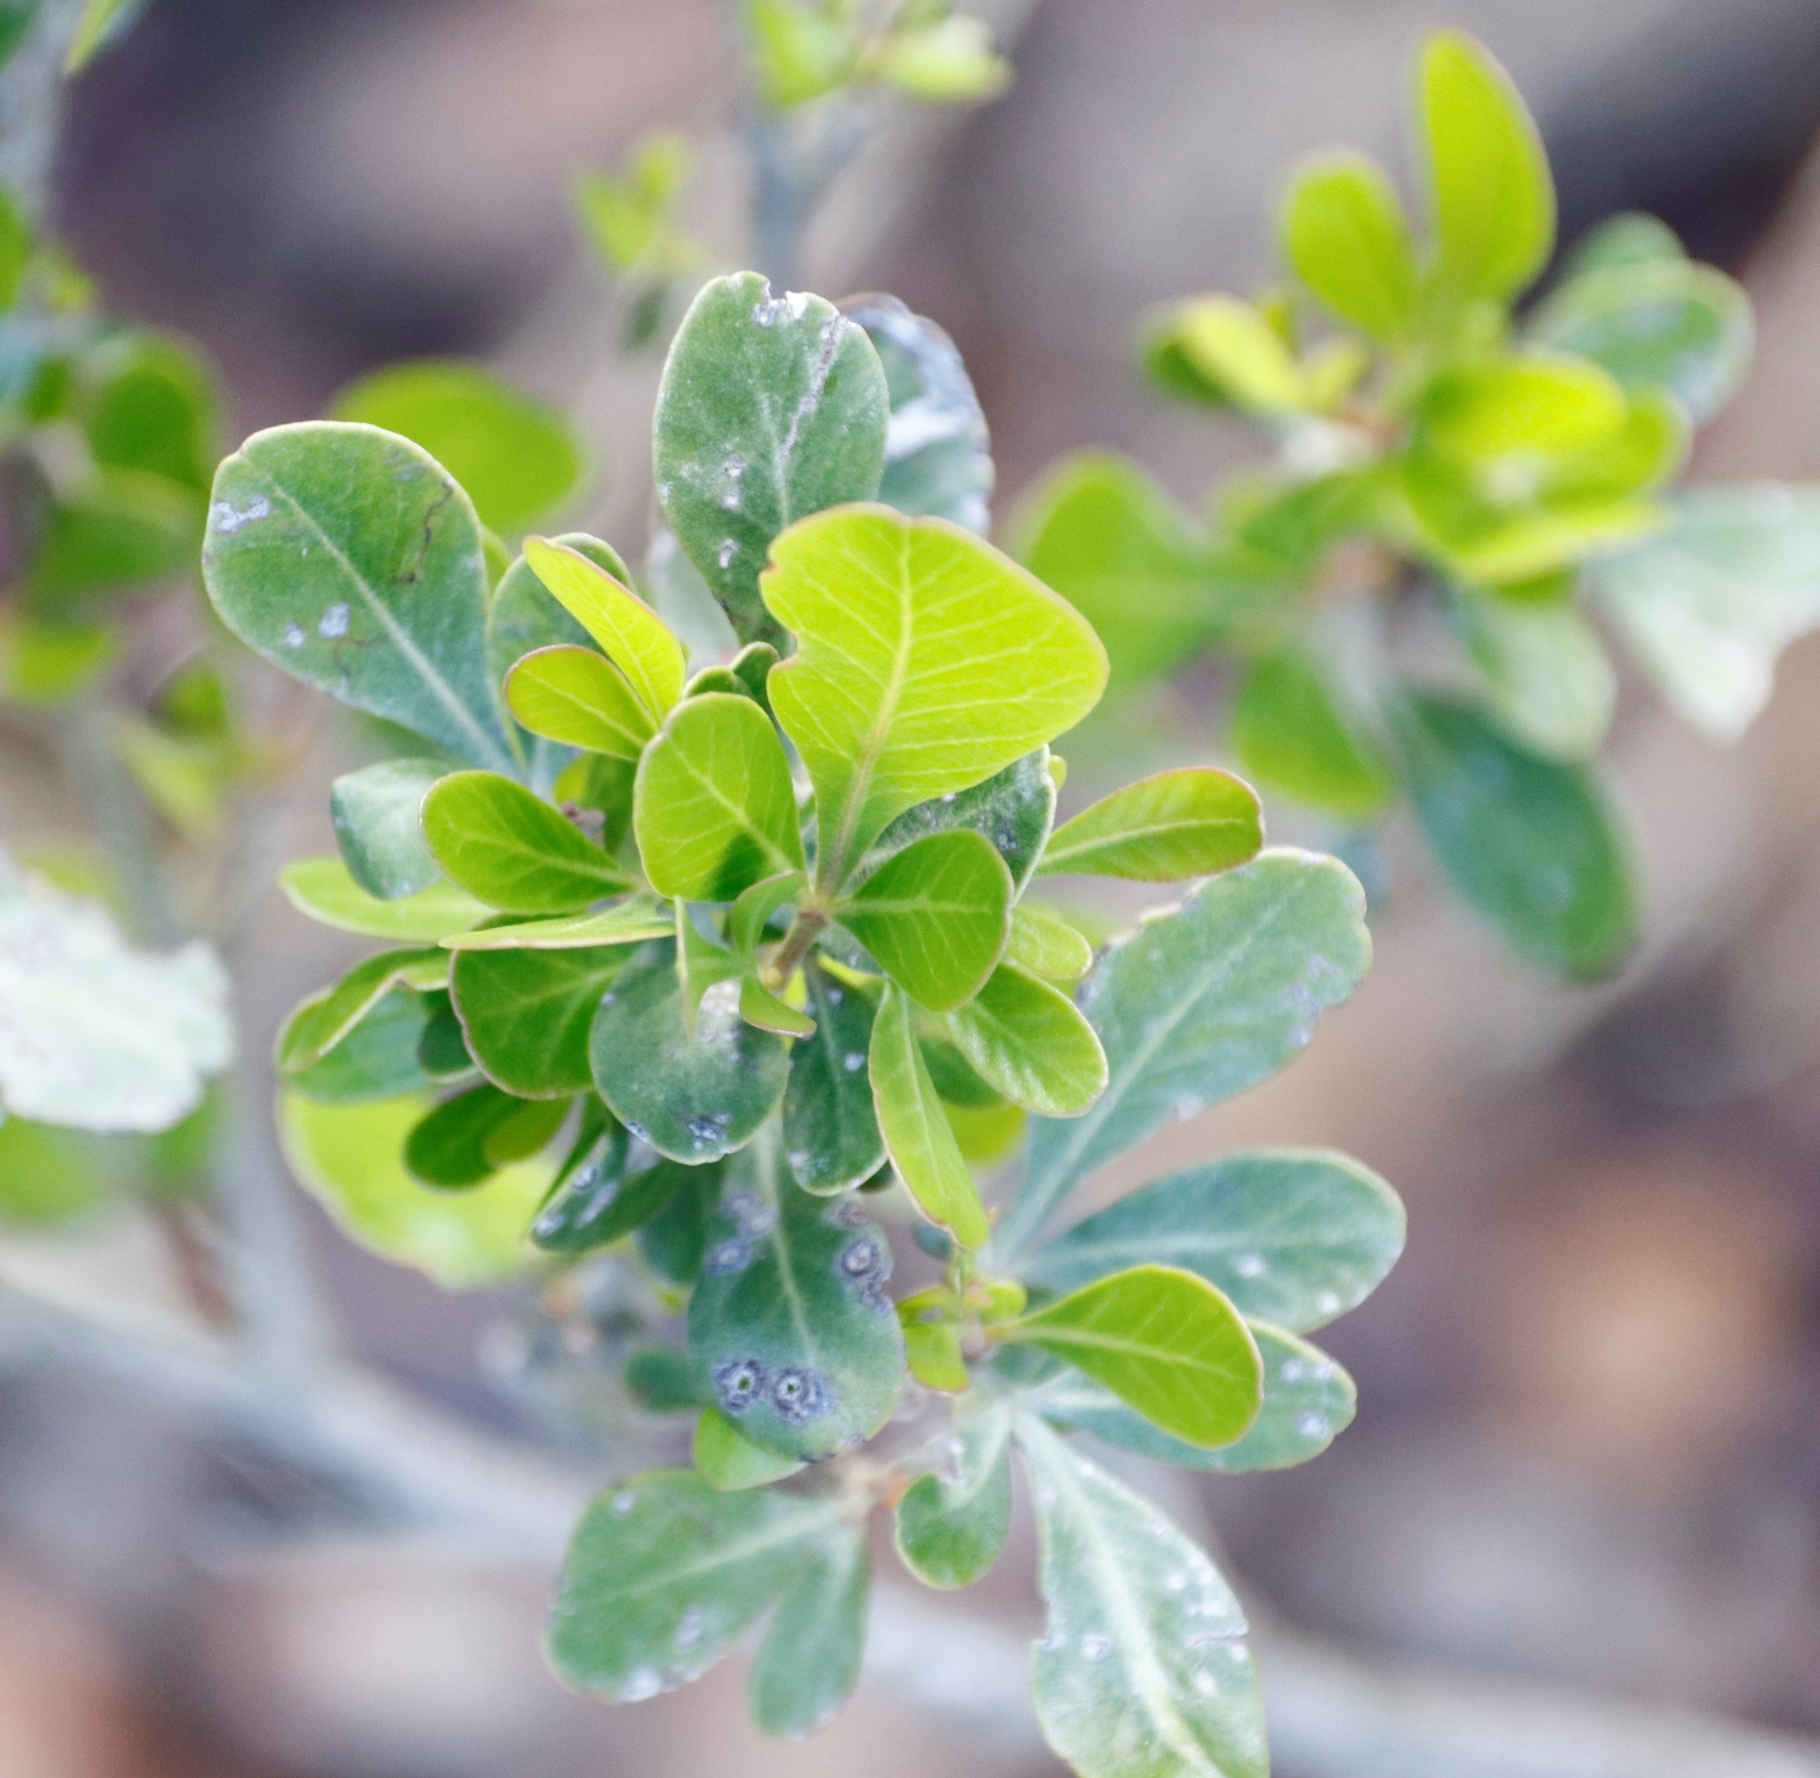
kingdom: Plantae
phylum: Tracheophyta
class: Magnoliopsida
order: Sapindales
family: Anacardiaceae
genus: Searsia
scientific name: Searsia lucida
